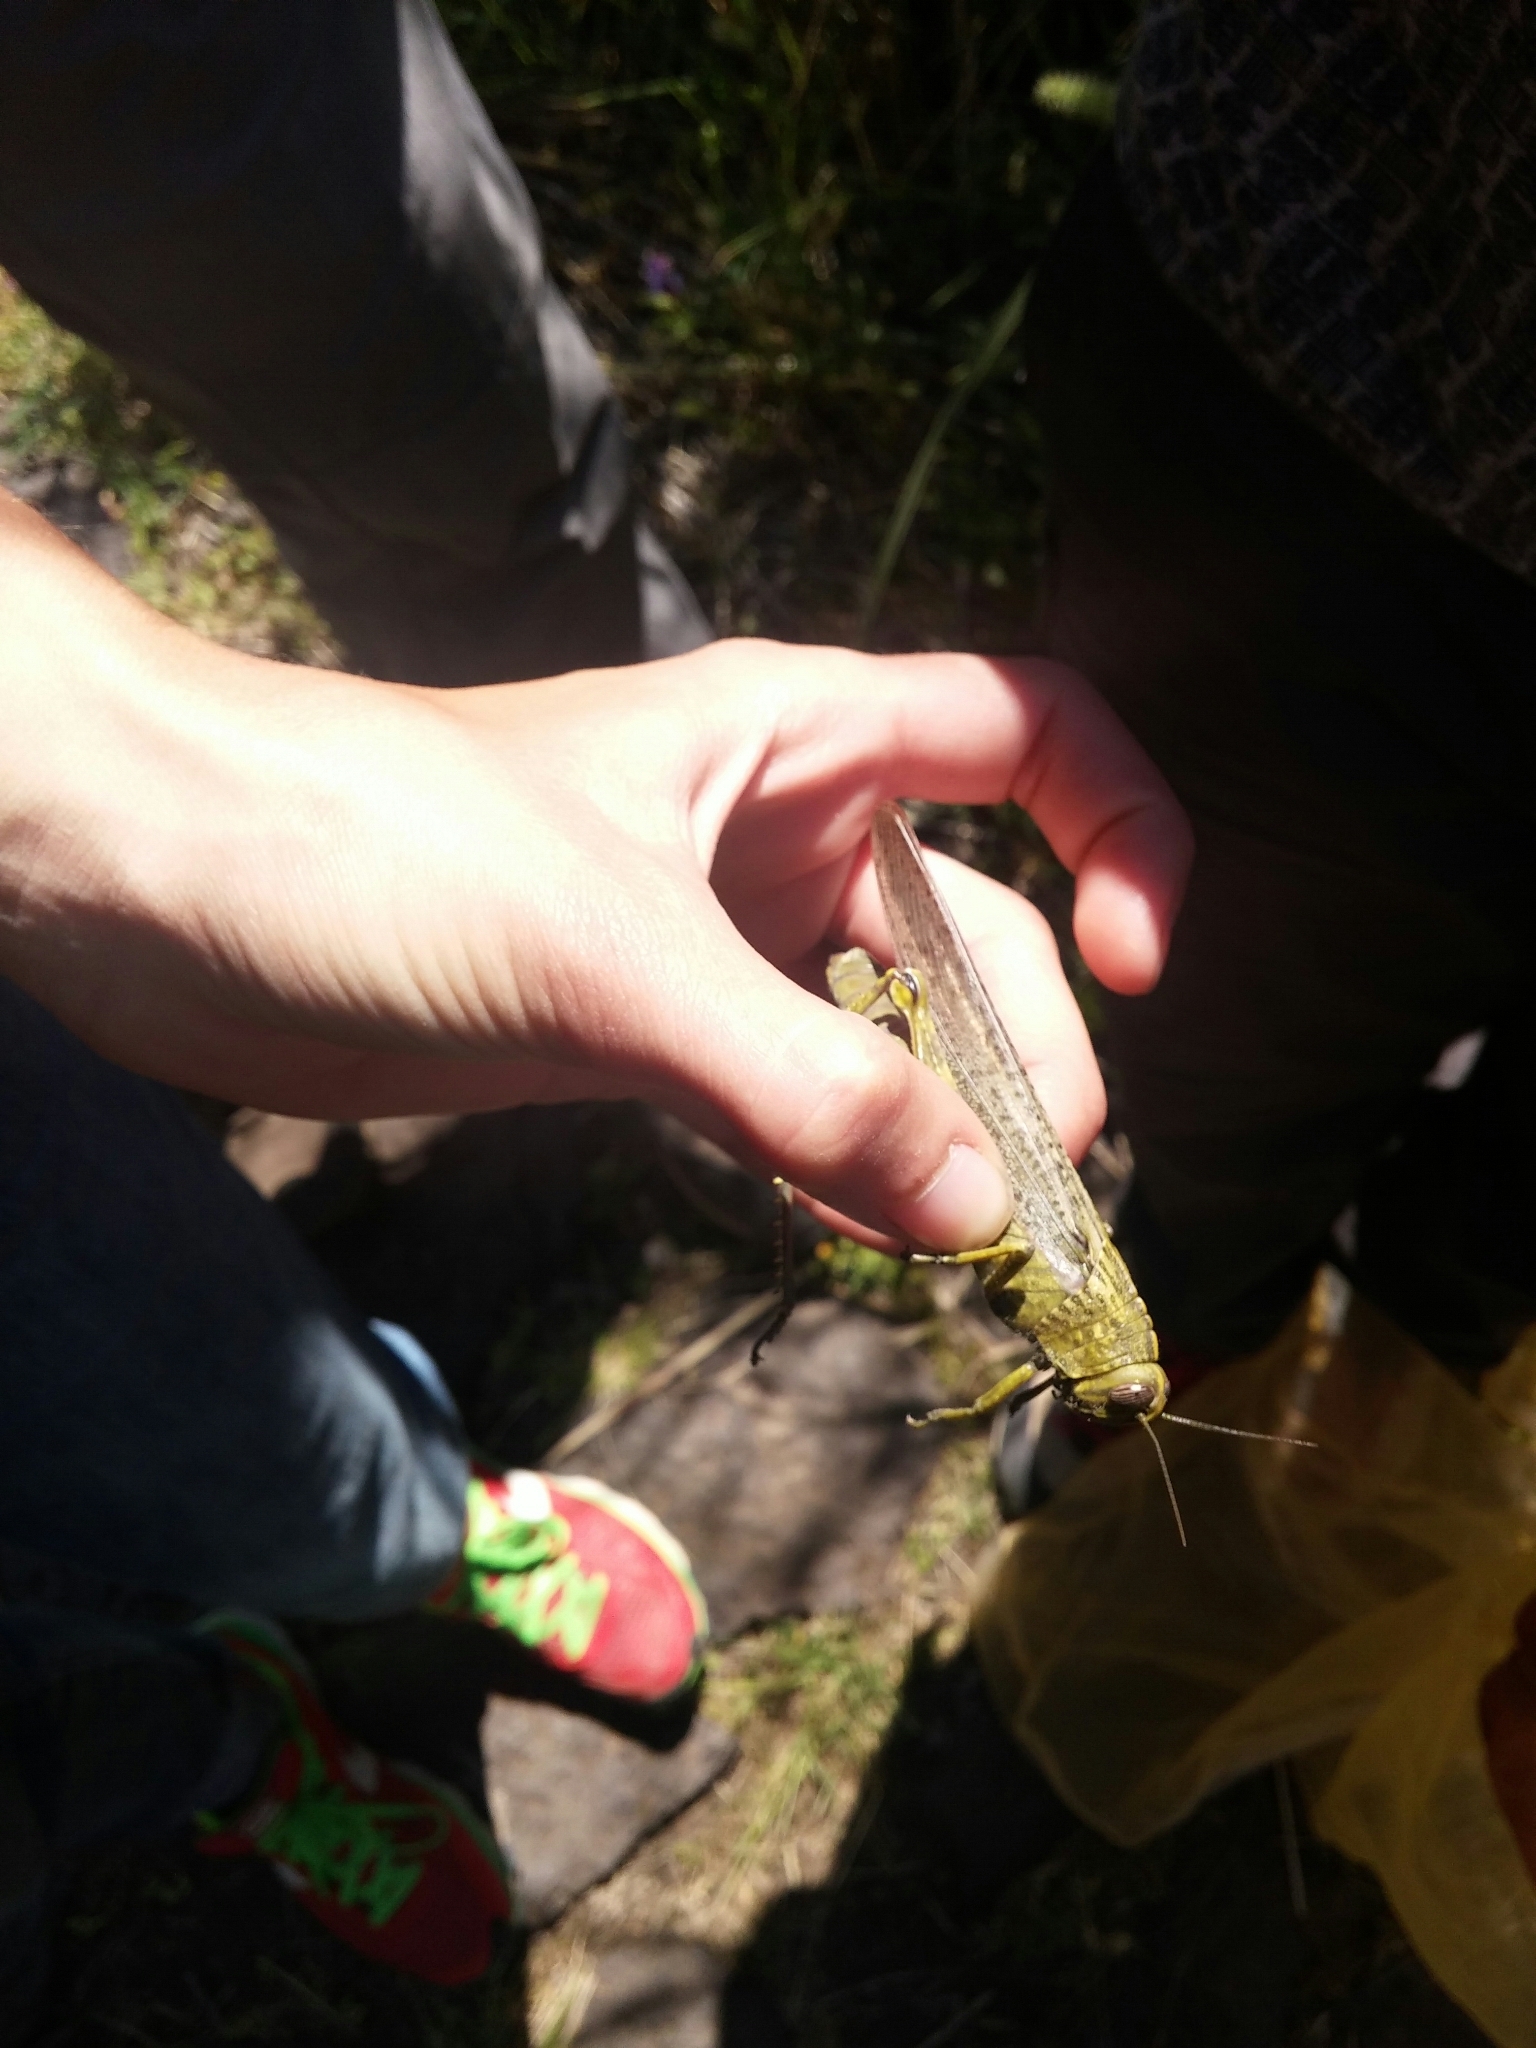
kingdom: Animalia
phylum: Arthropoda
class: Insecta
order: Orthoptera
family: Acrididae
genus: Anacridium
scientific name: Anacridium aegyptium
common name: Egyptian grasshopper
